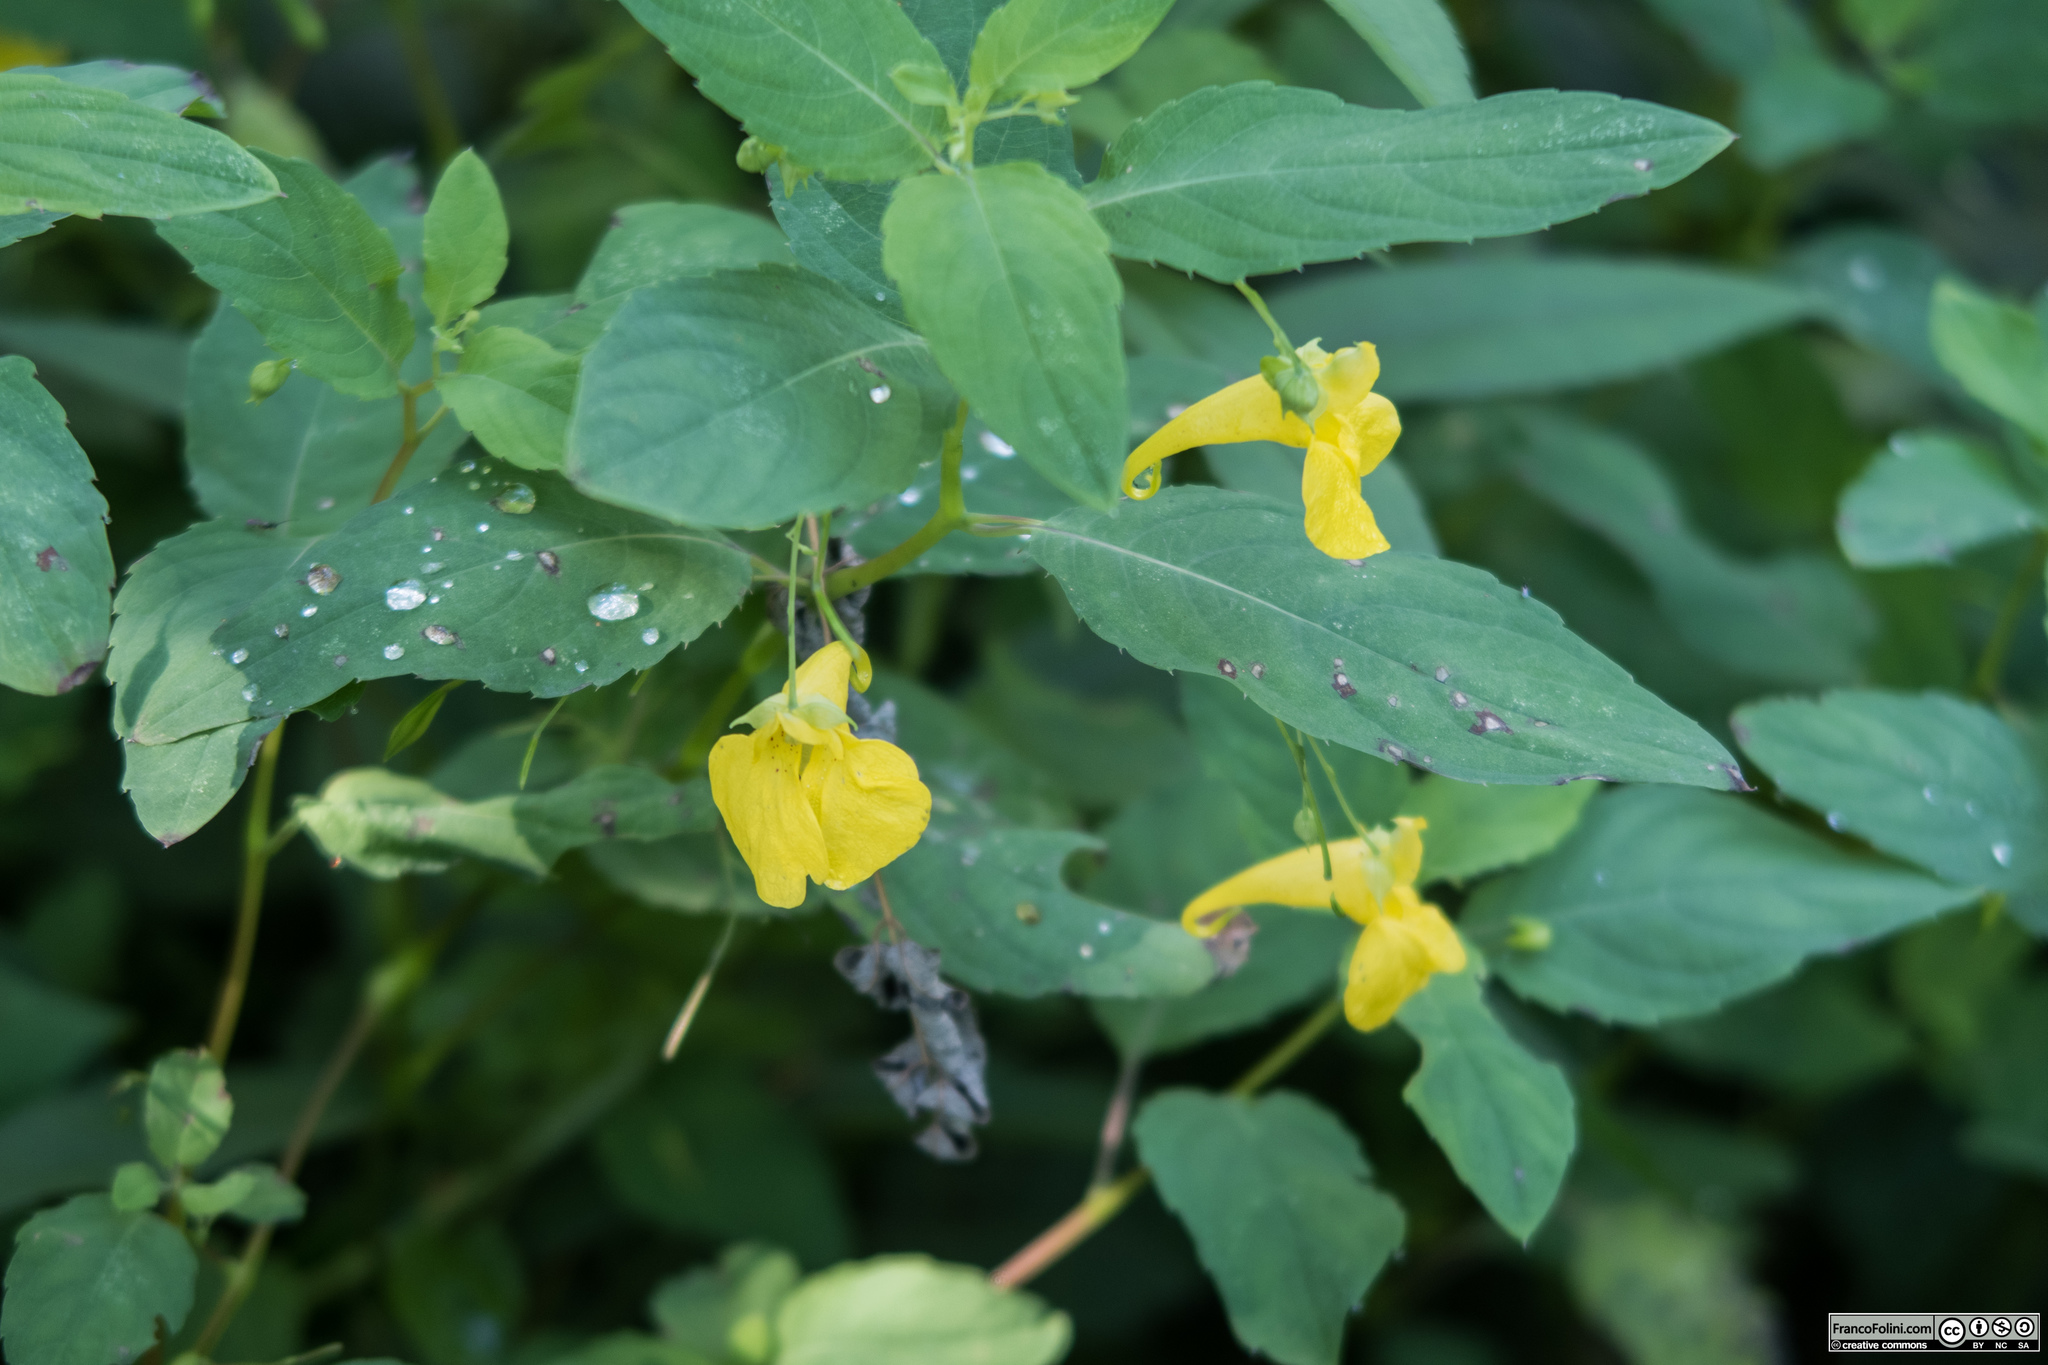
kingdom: Plantae
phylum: Tracheophyta
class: Magnoliopsida
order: Ericales
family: Balsaminaceae
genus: Impatiens
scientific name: Impatiens noli-tangere
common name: Touch-me-not balsam
